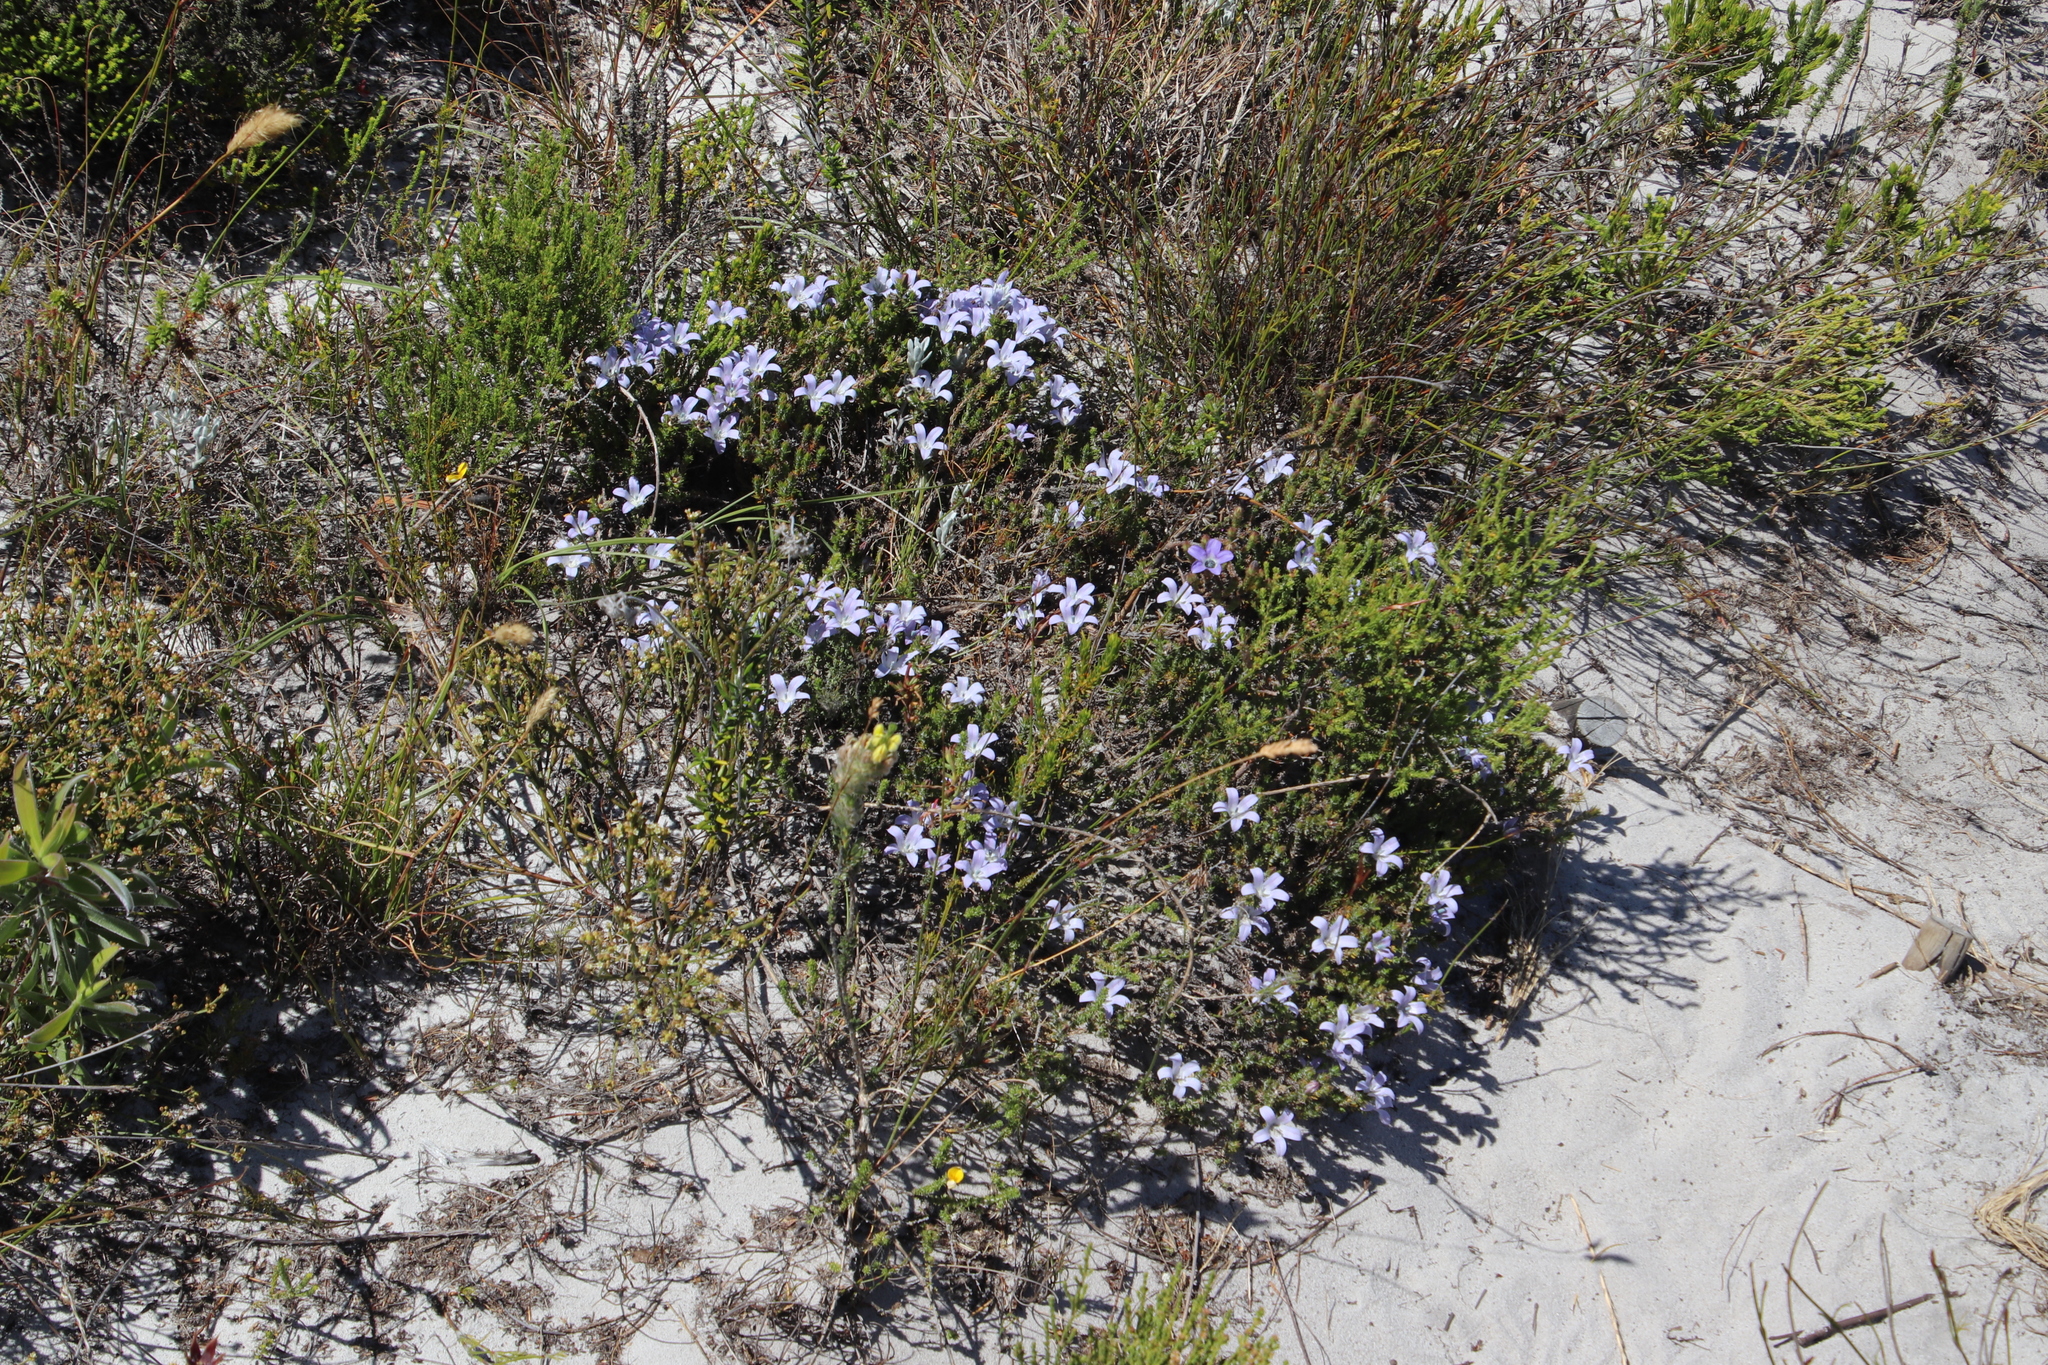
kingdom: Plantae
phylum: Tracheophyta
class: Magnoliopsida
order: Asterales
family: Campanulaceae
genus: Roella
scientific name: Roella prostrata
